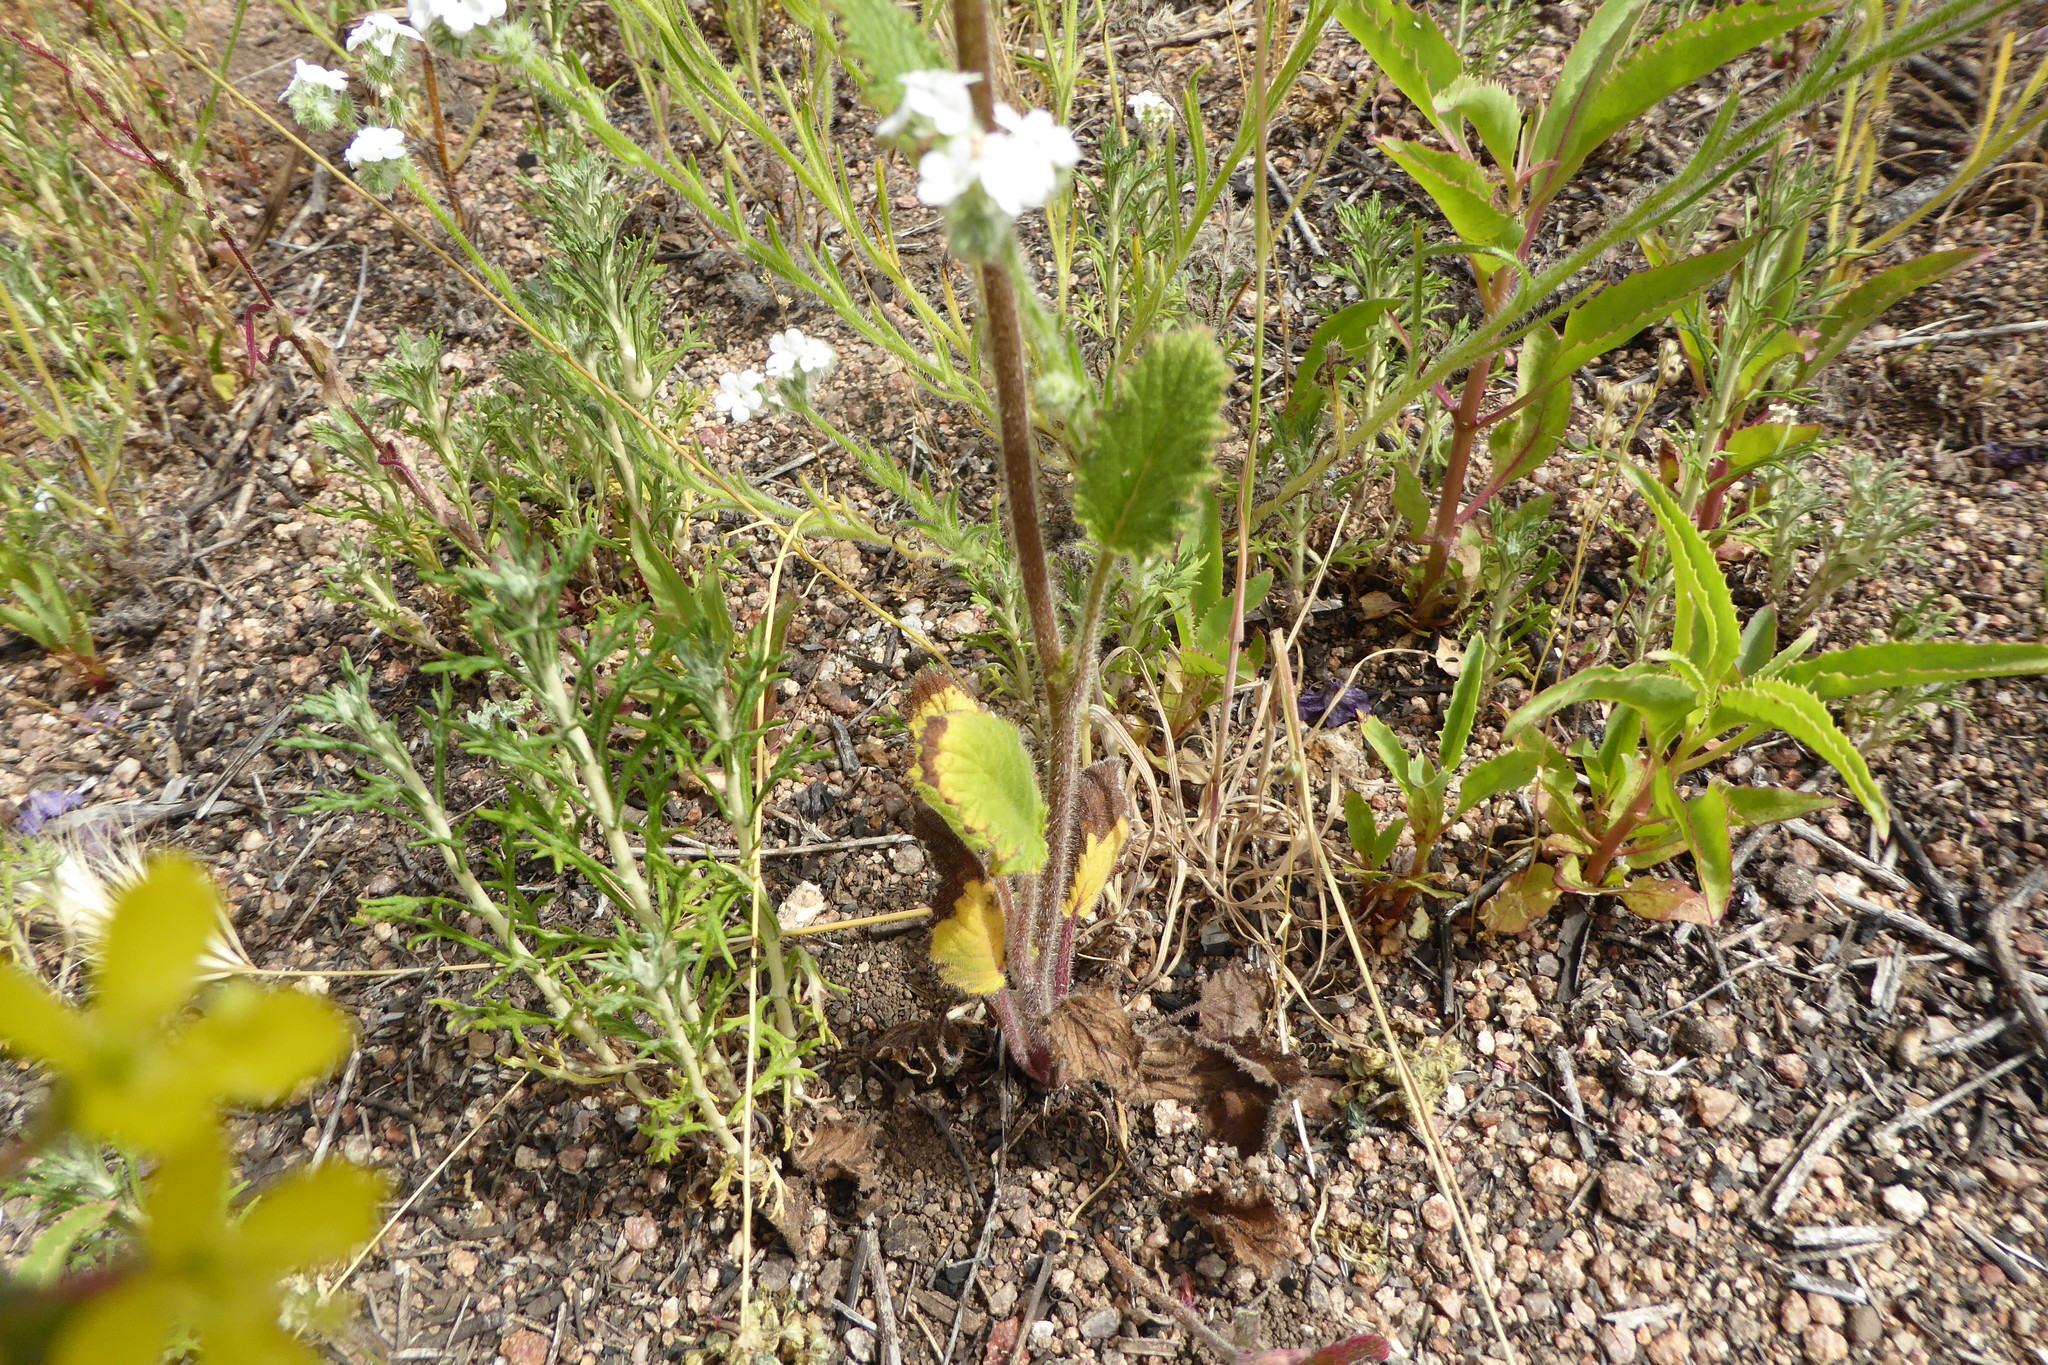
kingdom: Plantae
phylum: Tracheophyta
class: Magnoliopsida
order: Boraginales
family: Hydrophyllaceae
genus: Phacelia
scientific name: Phacelia parryi
